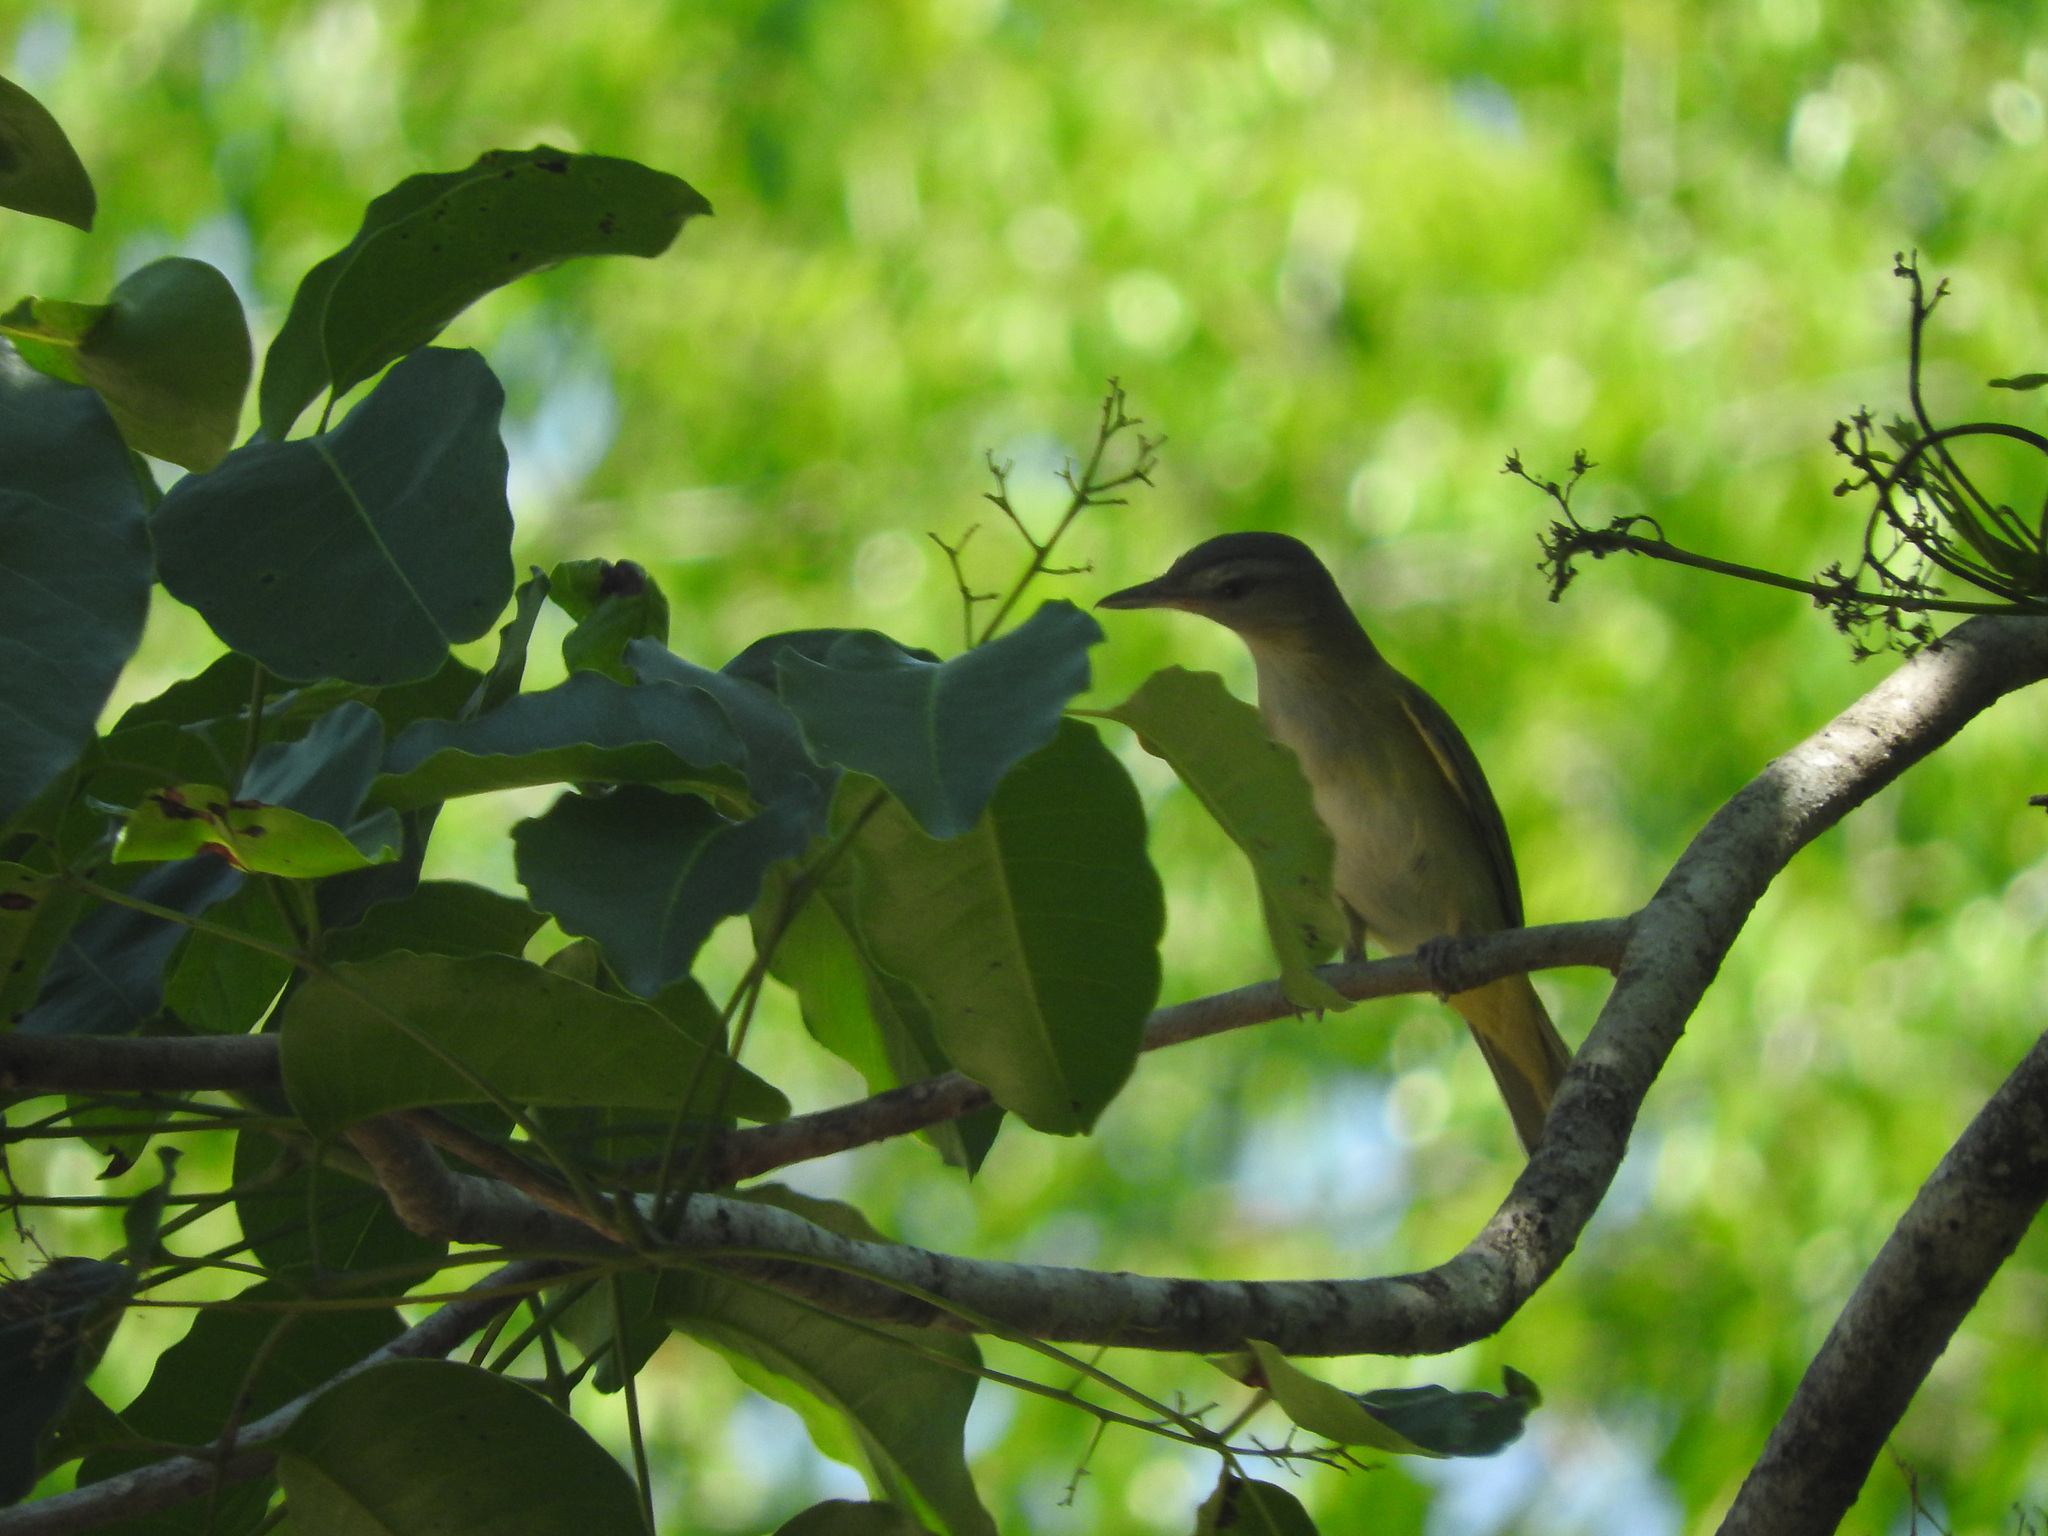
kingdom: Animalia
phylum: Chordata
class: Aves
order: Passeriformes
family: Vireonidae
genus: Vireo
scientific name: Vireo flavoviridis
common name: Yellow-green vireo
